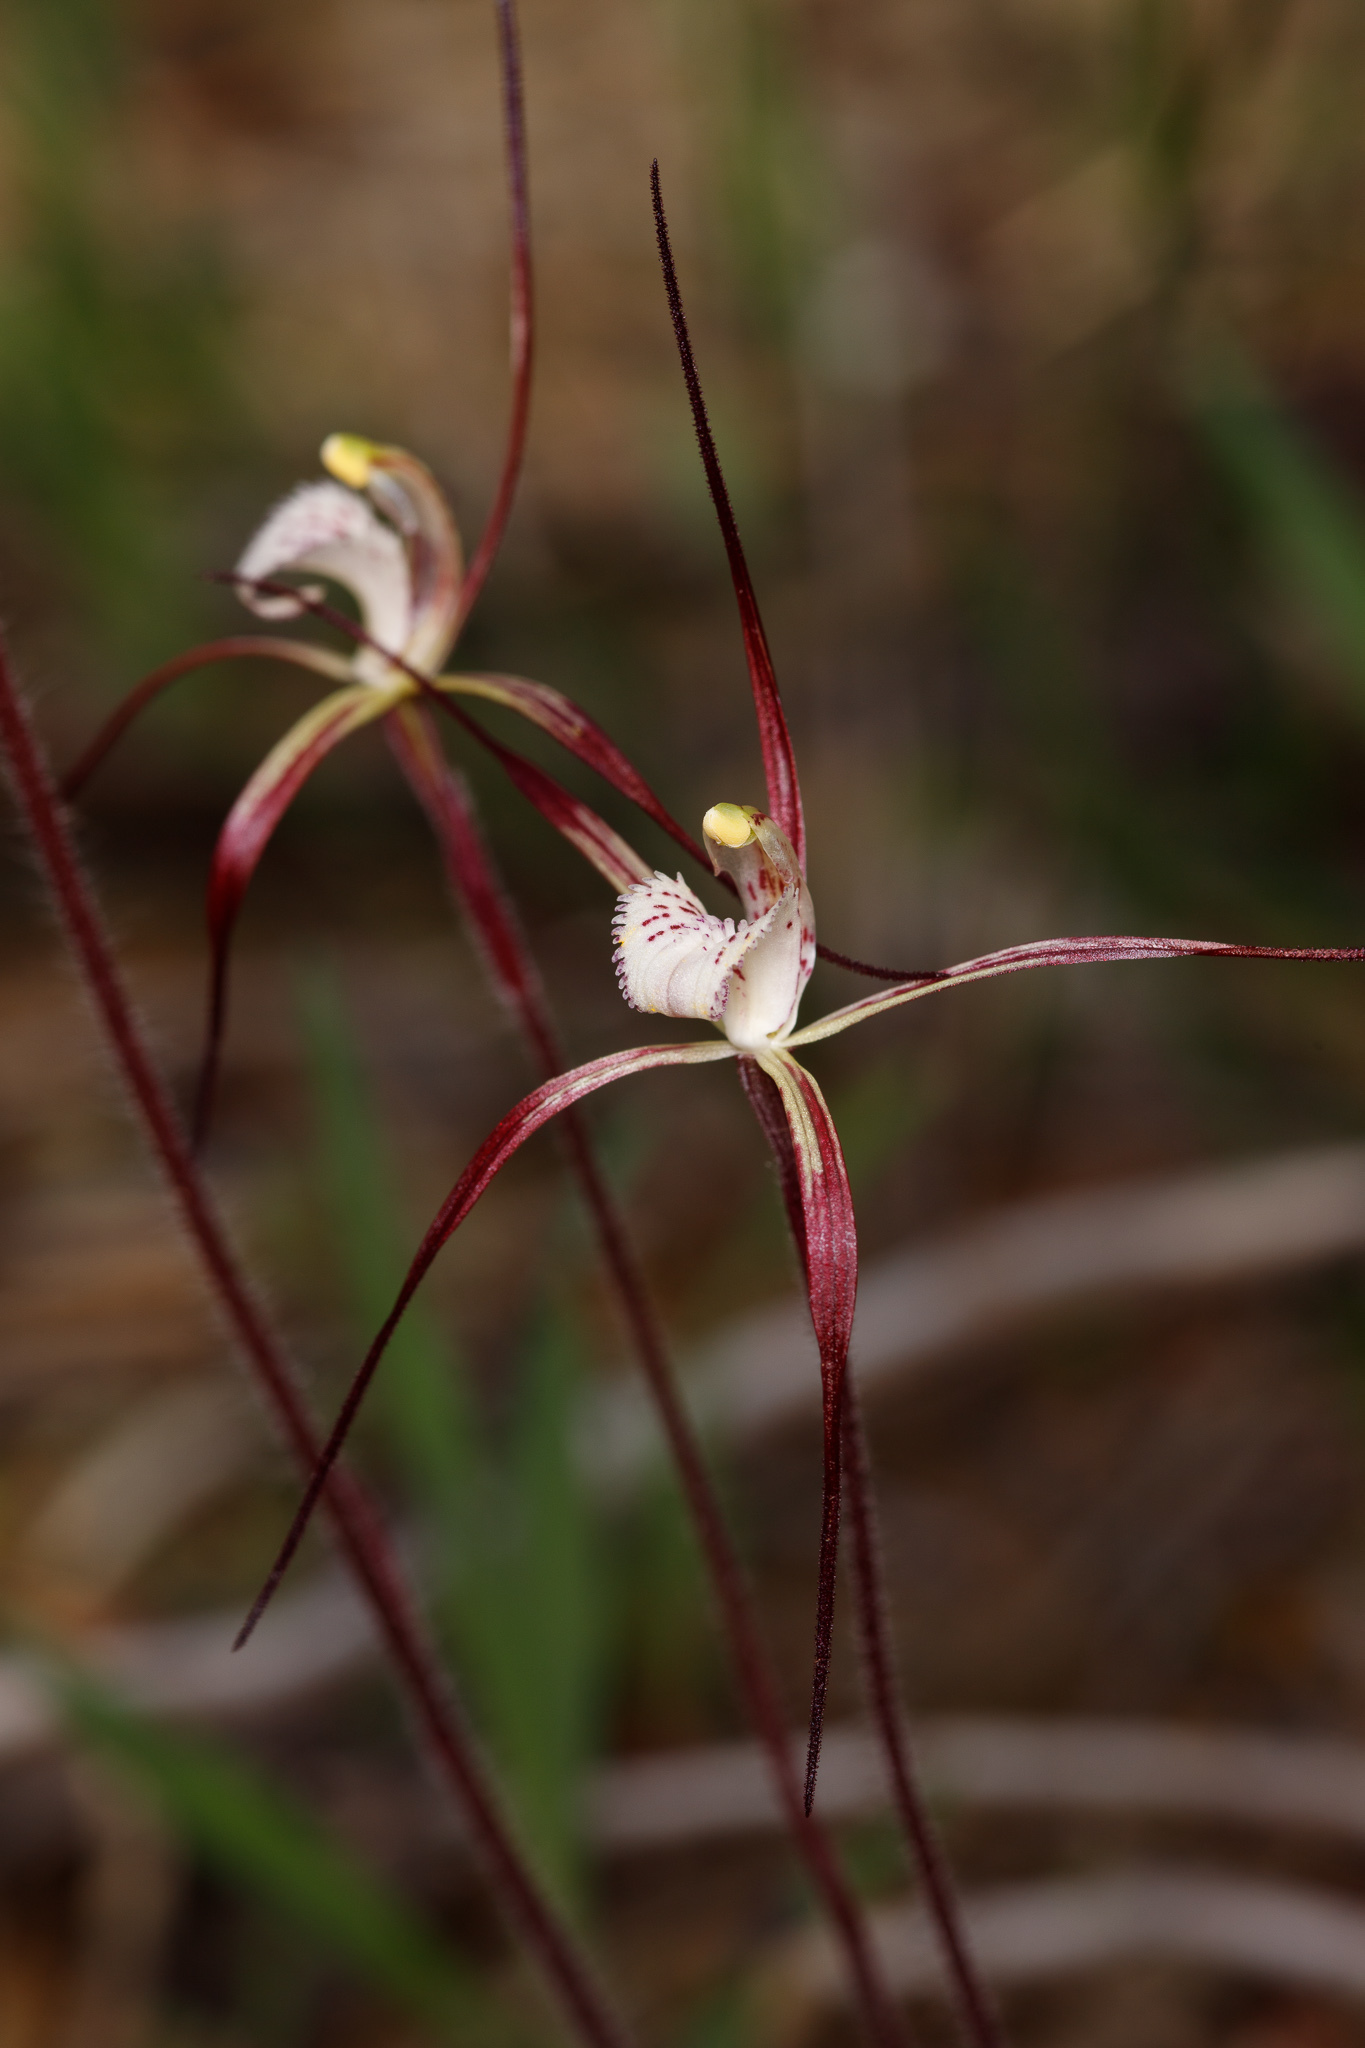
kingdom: Plantae
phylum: Tracheophyta
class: Liliopsida
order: Asparagales
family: Orchidaceae
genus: Caladenia
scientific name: Caladenia denticulata
